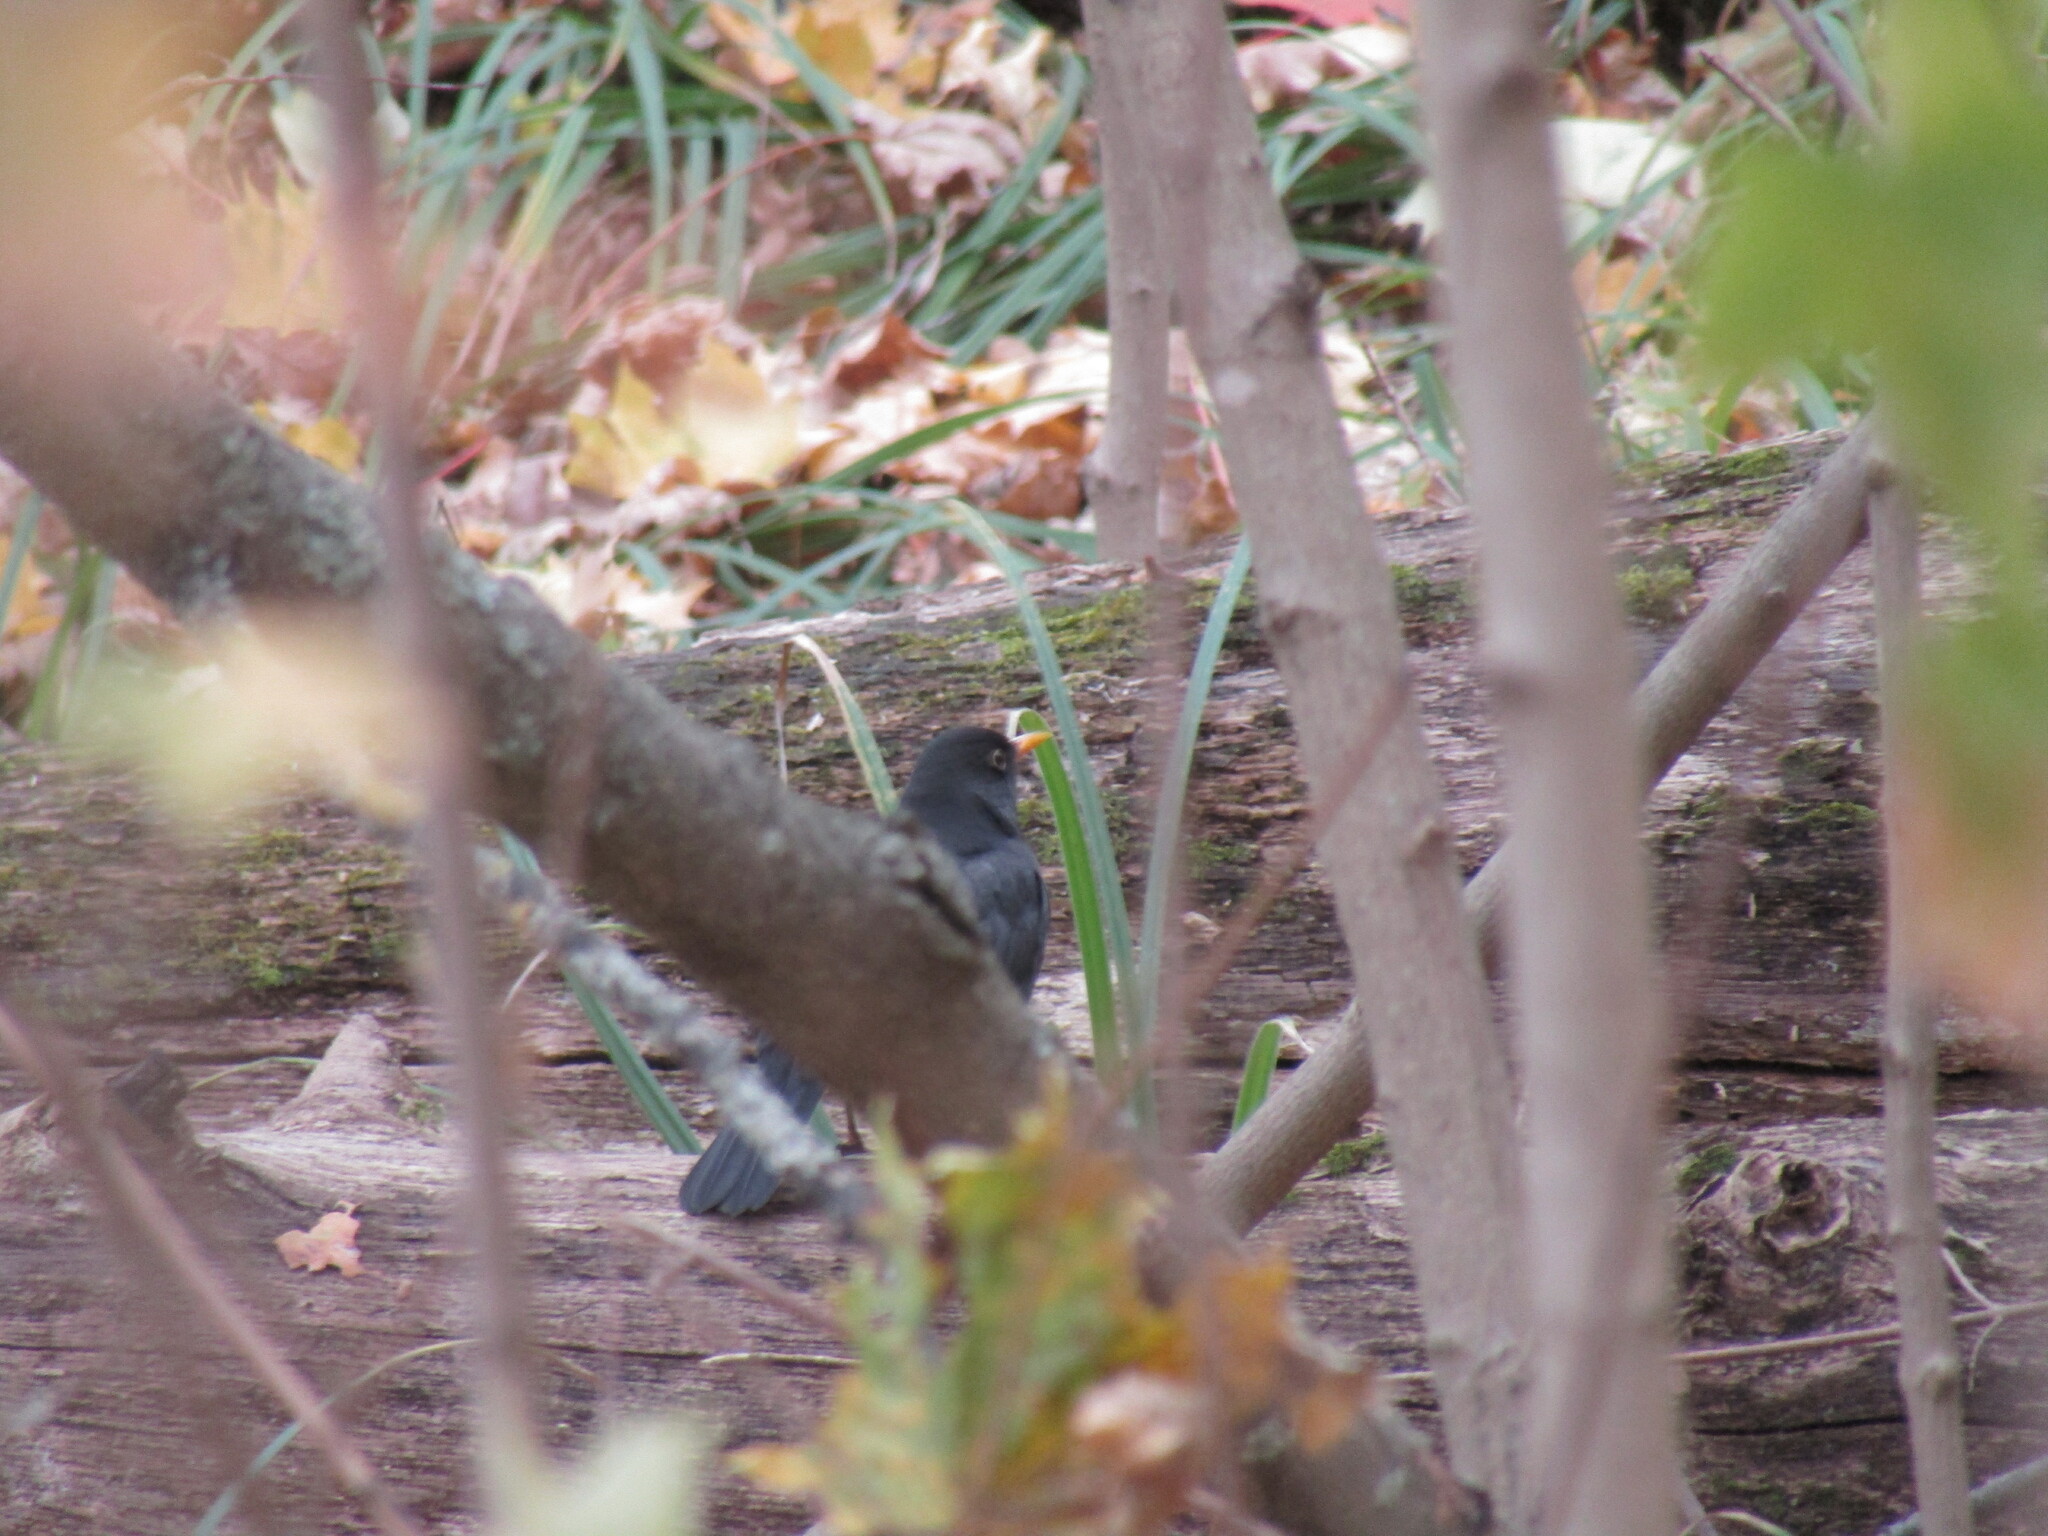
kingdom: Animalia
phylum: Chordata
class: Aves
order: Passeriformes
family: Turdidae
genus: Turdus
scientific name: Turdus merula
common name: Common blackbird
